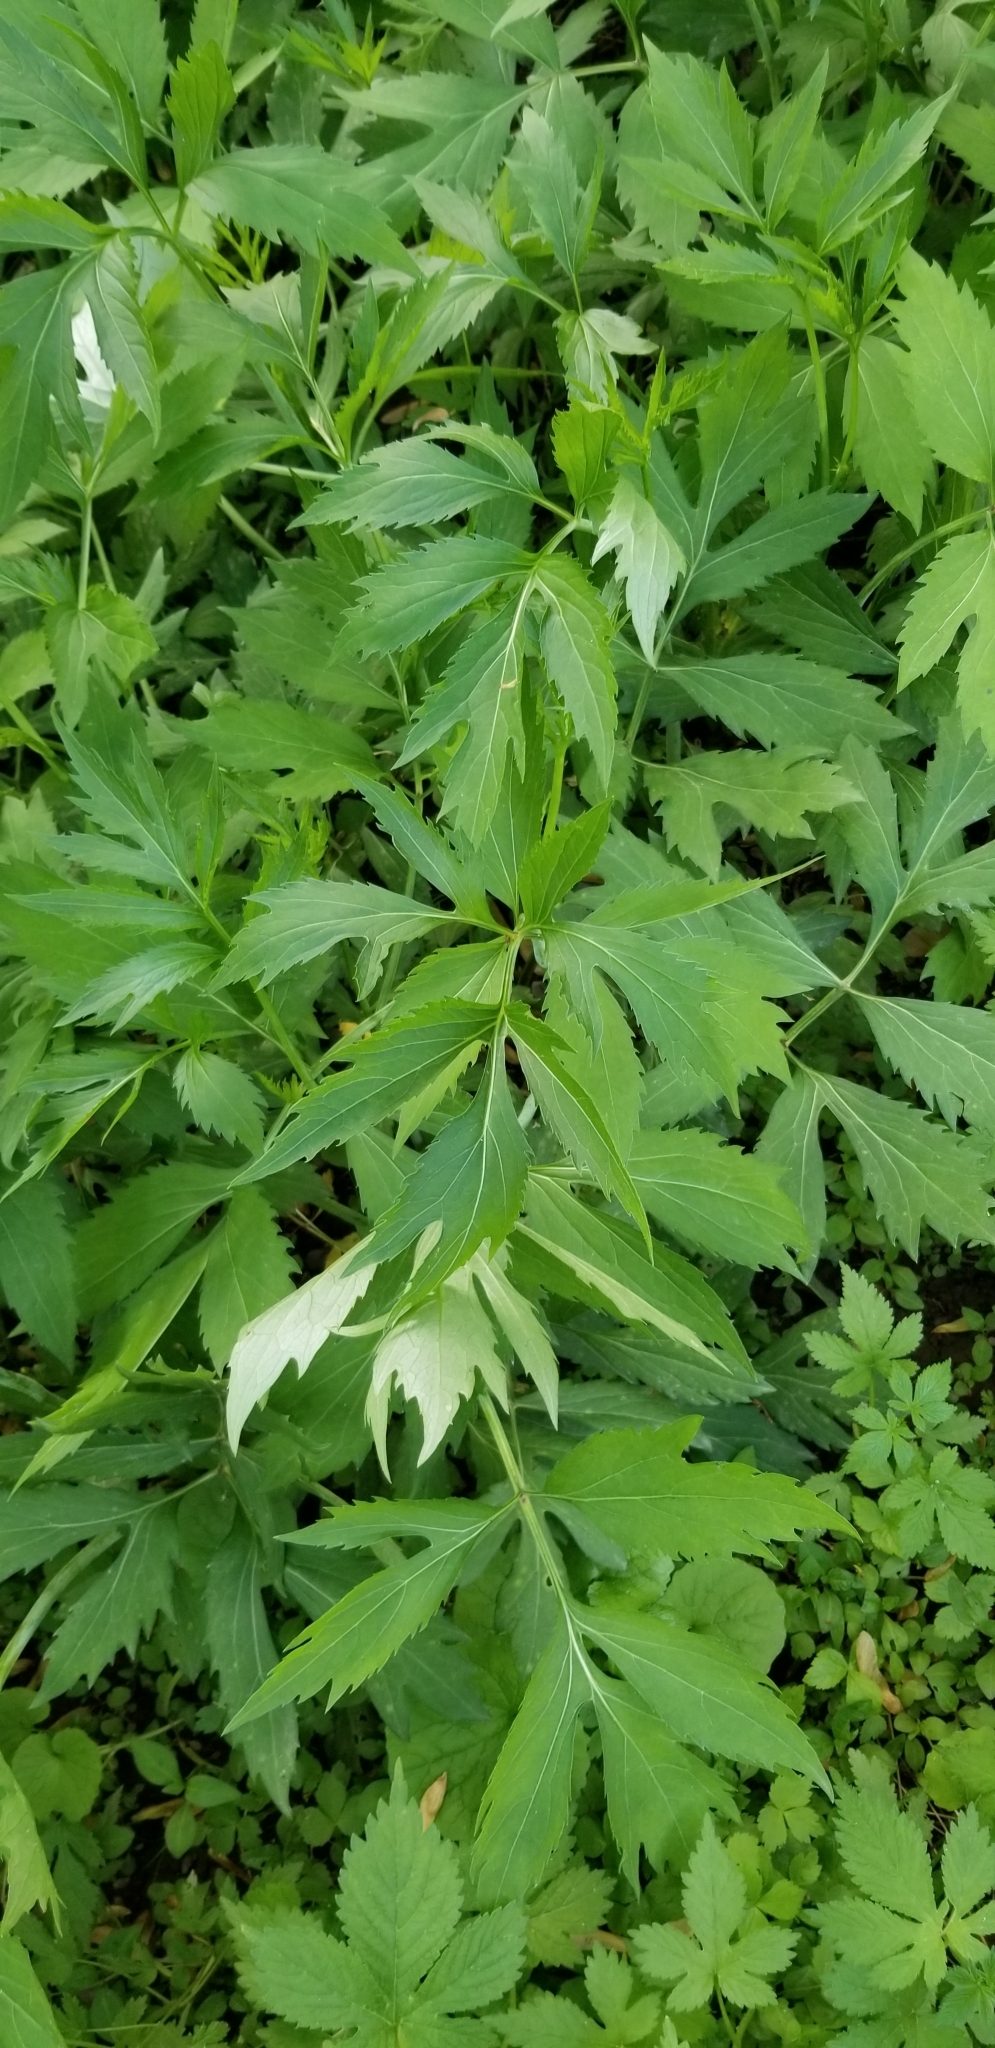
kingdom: Plantae
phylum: Tracheophyta
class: Magnoliopsida
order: Asterales
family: Asteraceae
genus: Rudbeckia
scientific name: Rudbeckia laciniata
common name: Coneflower
